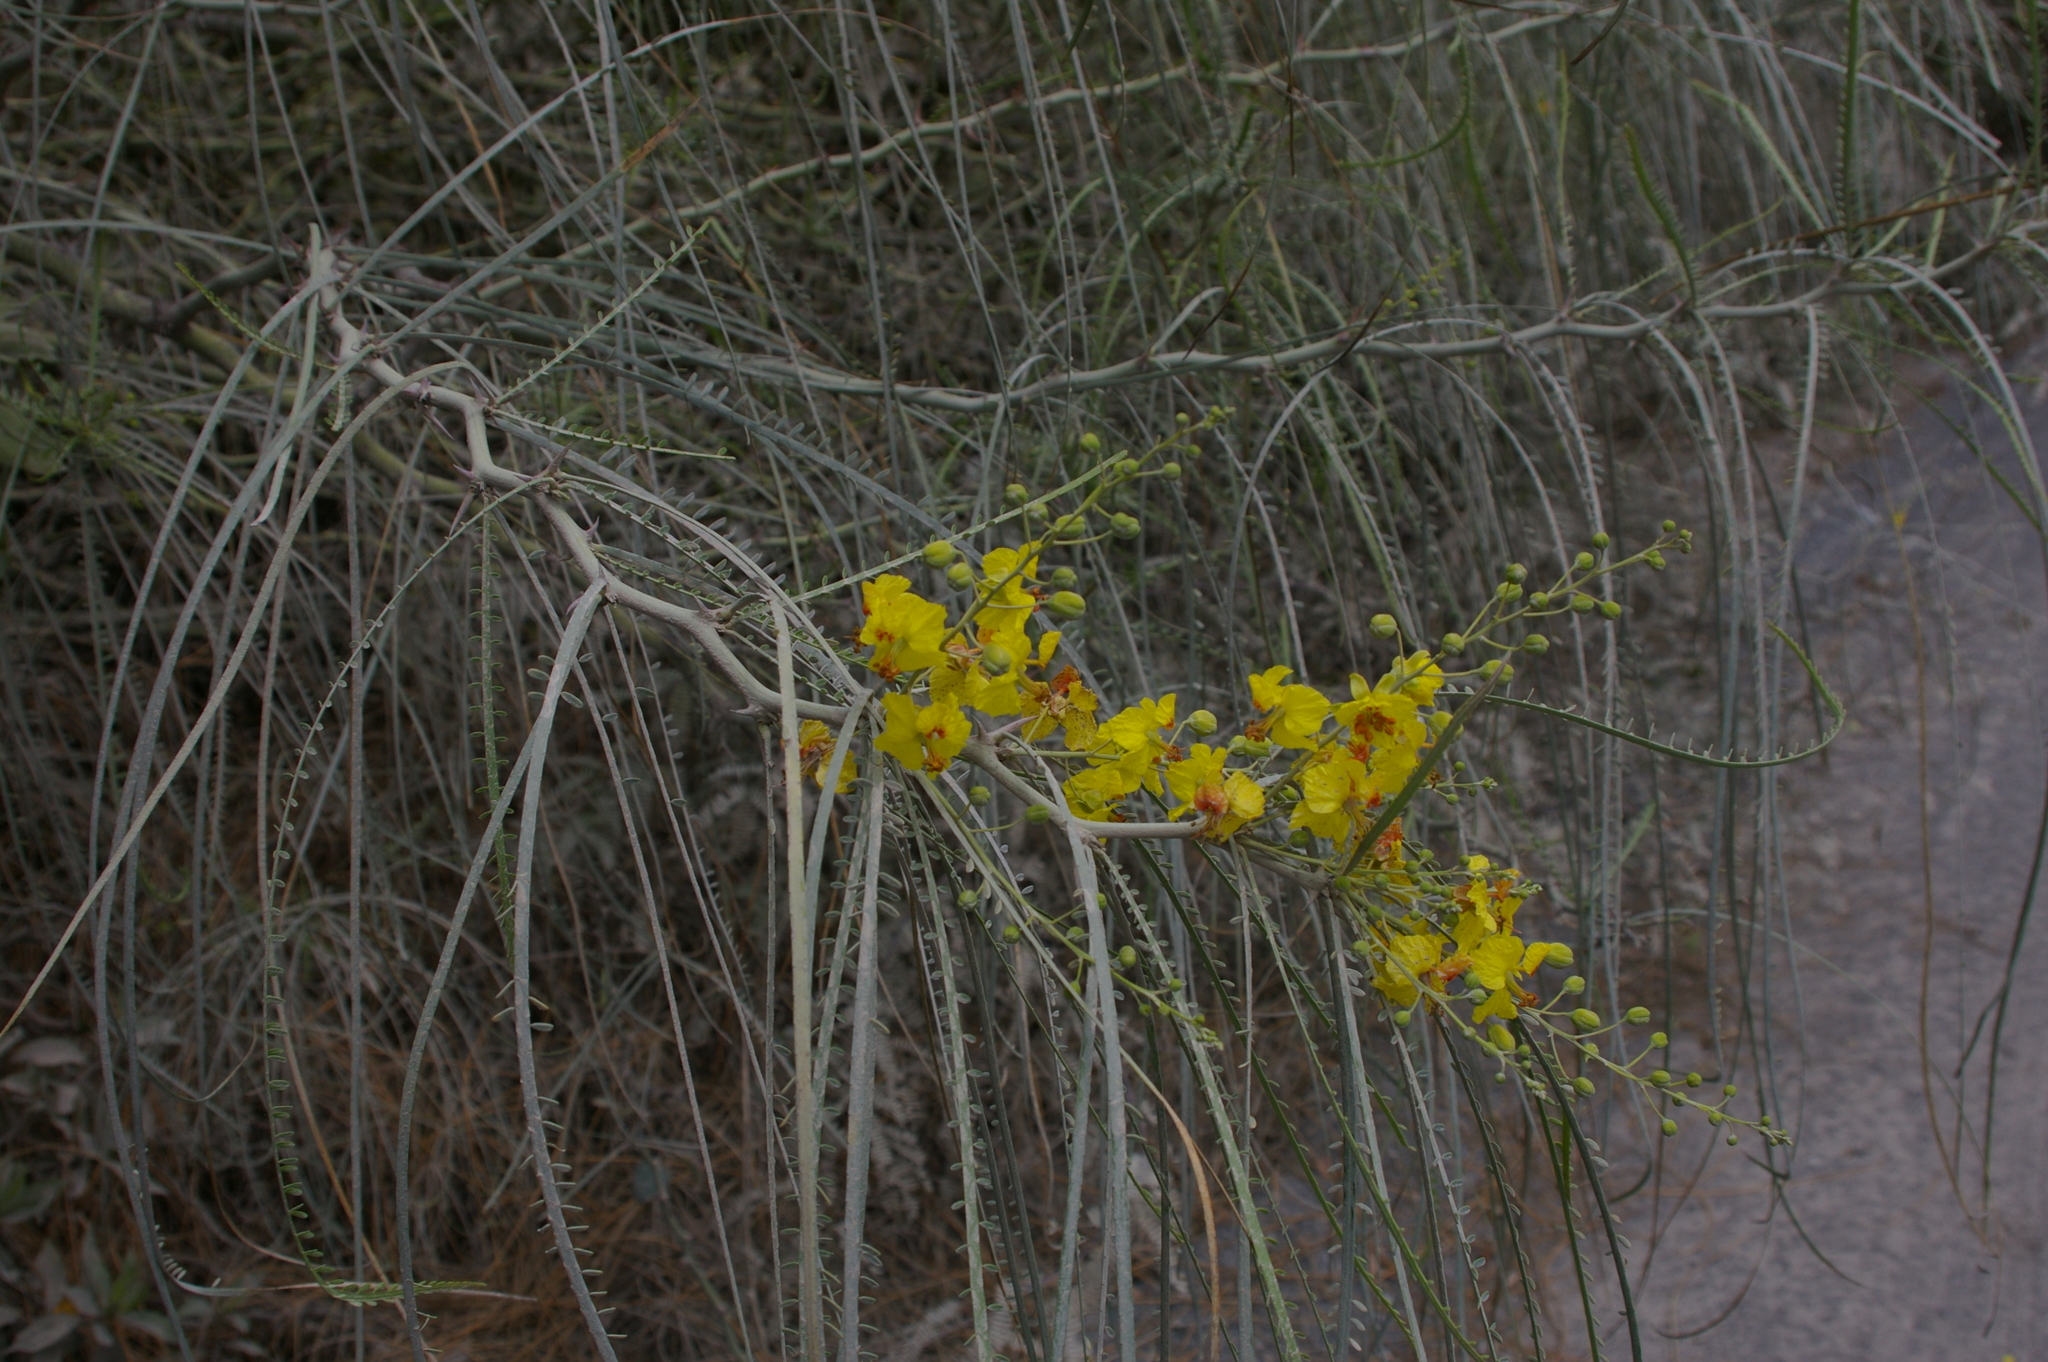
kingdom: Plantae
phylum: Tracheophyta
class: Magnoliopsida
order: Fabales
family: Fabaceae
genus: Parkinsonia
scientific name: Parkinsonia aculeata
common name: Jerusalem thorn
